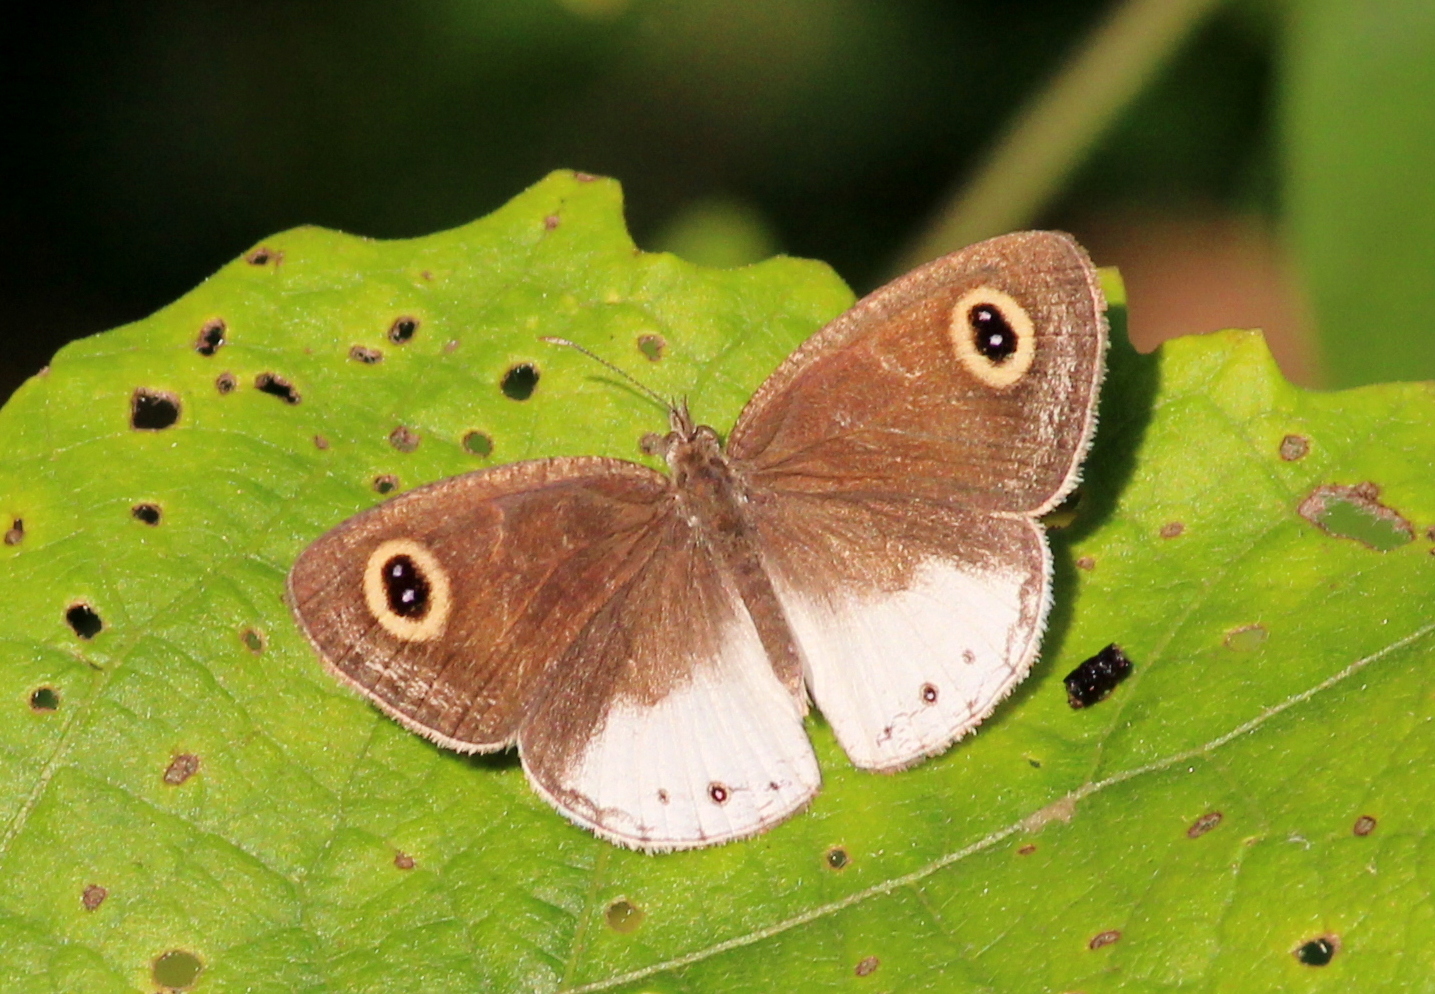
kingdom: Animalia
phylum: Arthropoda
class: Insecta
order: Lepidoptera
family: Nymphalidae
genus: Ypthima
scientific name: Ypthima ceylonica
